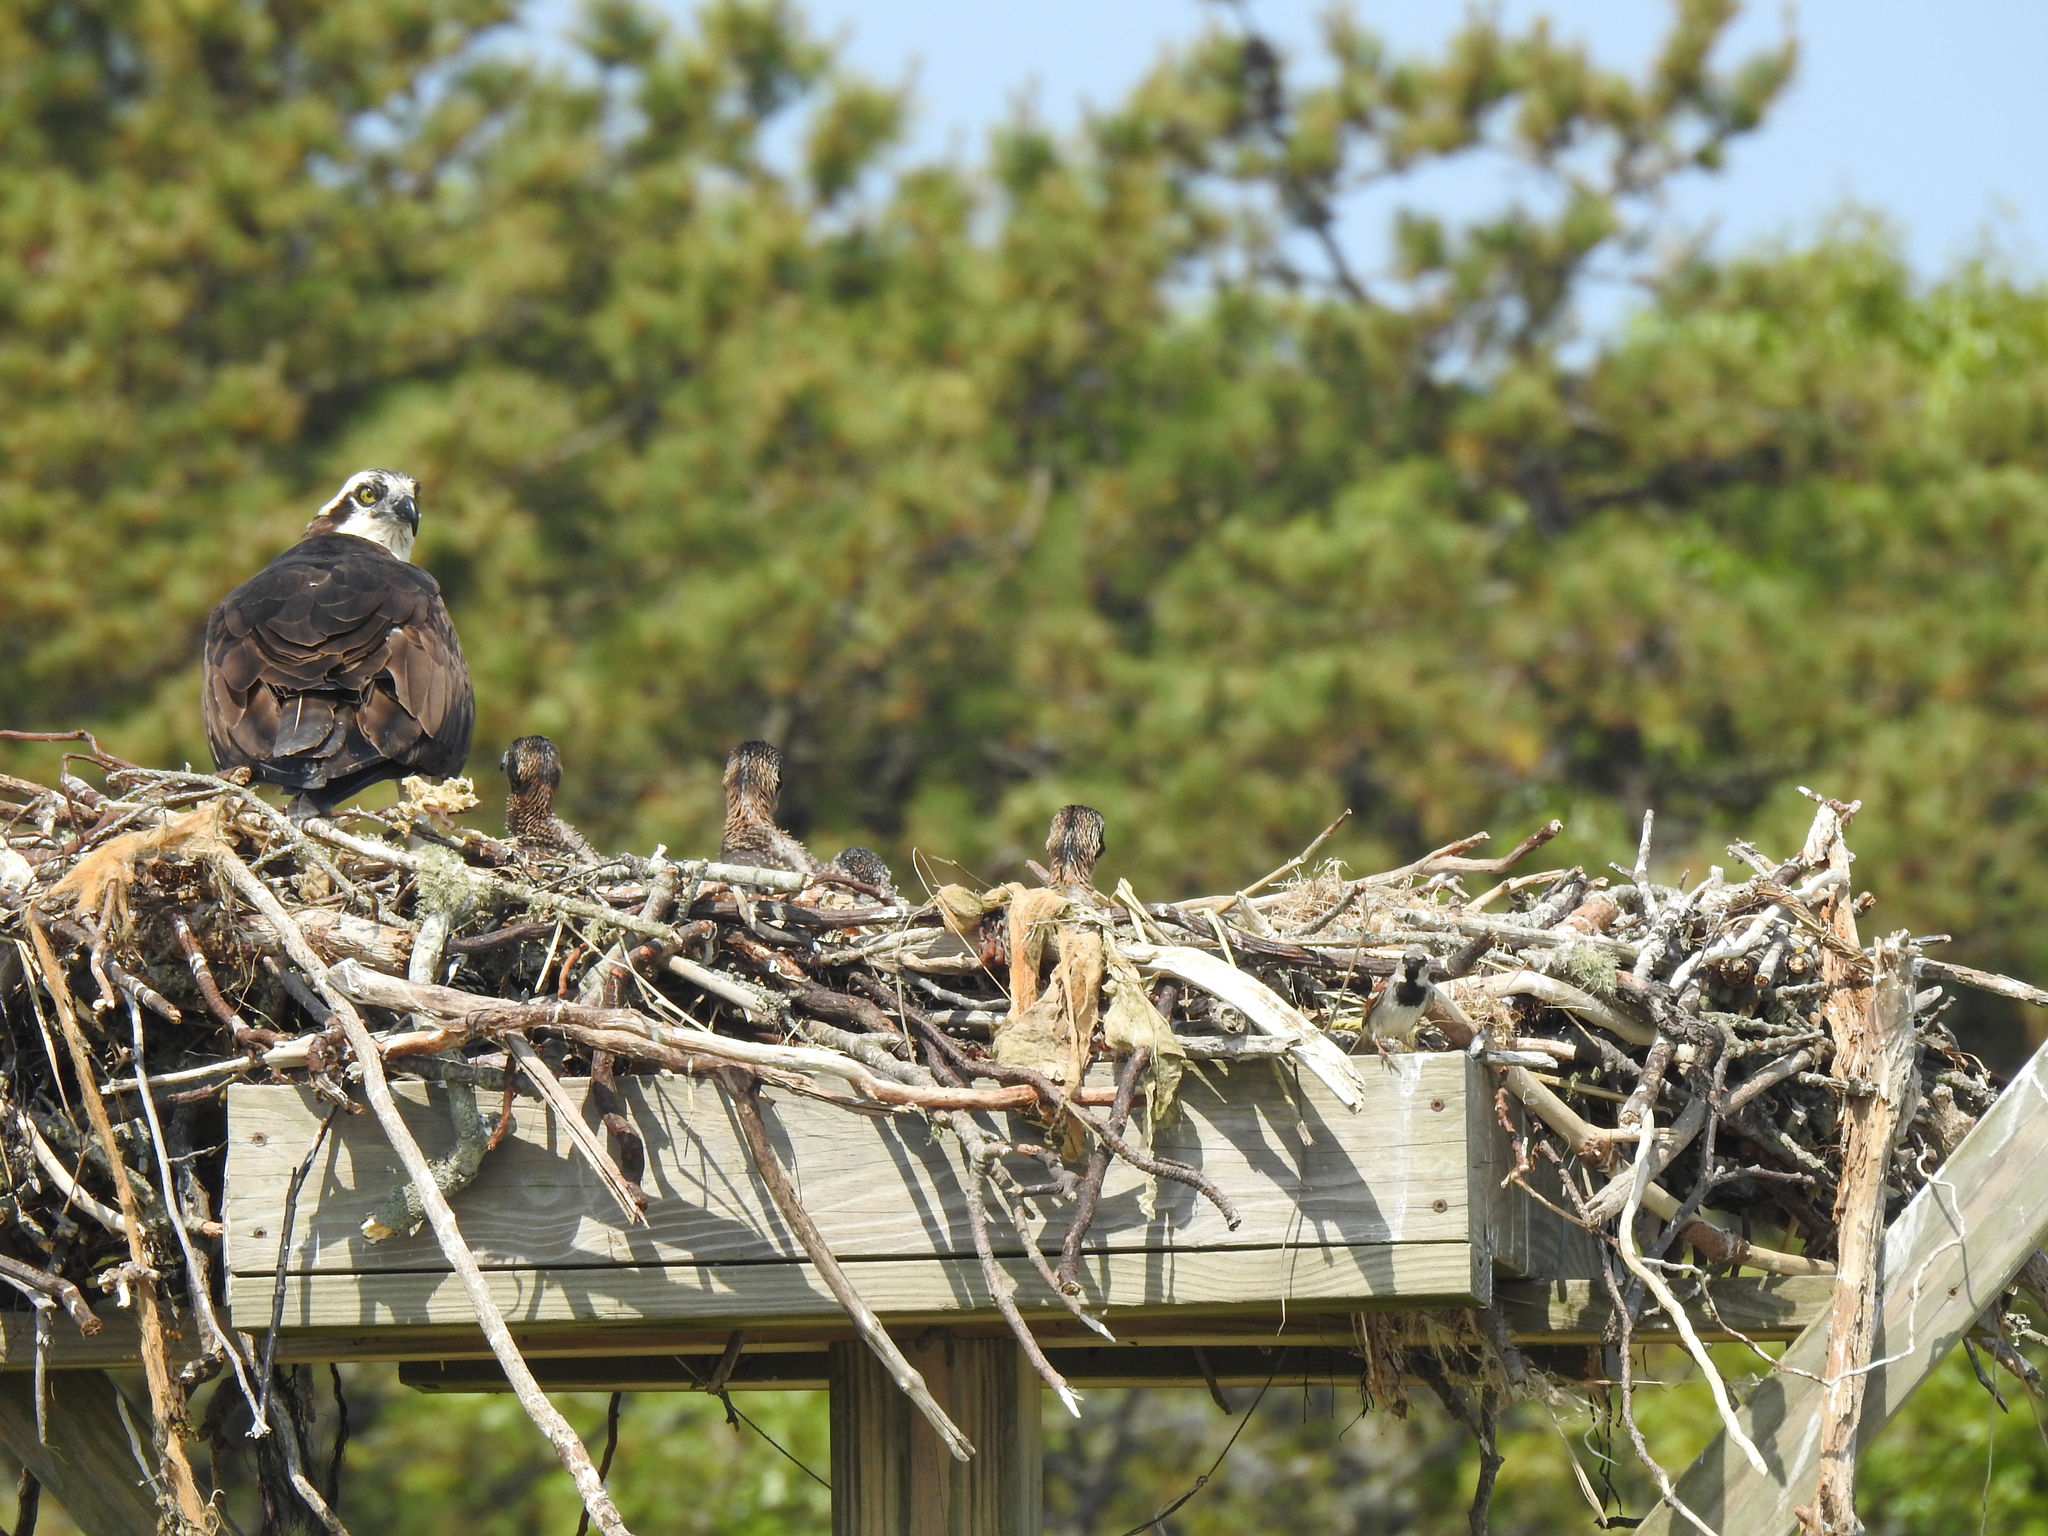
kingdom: Animalia
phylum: Chordata
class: Aves
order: Accipitriformes
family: Pandionidae
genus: Pandion
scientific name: Pandion haliaetus
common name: Osprey
